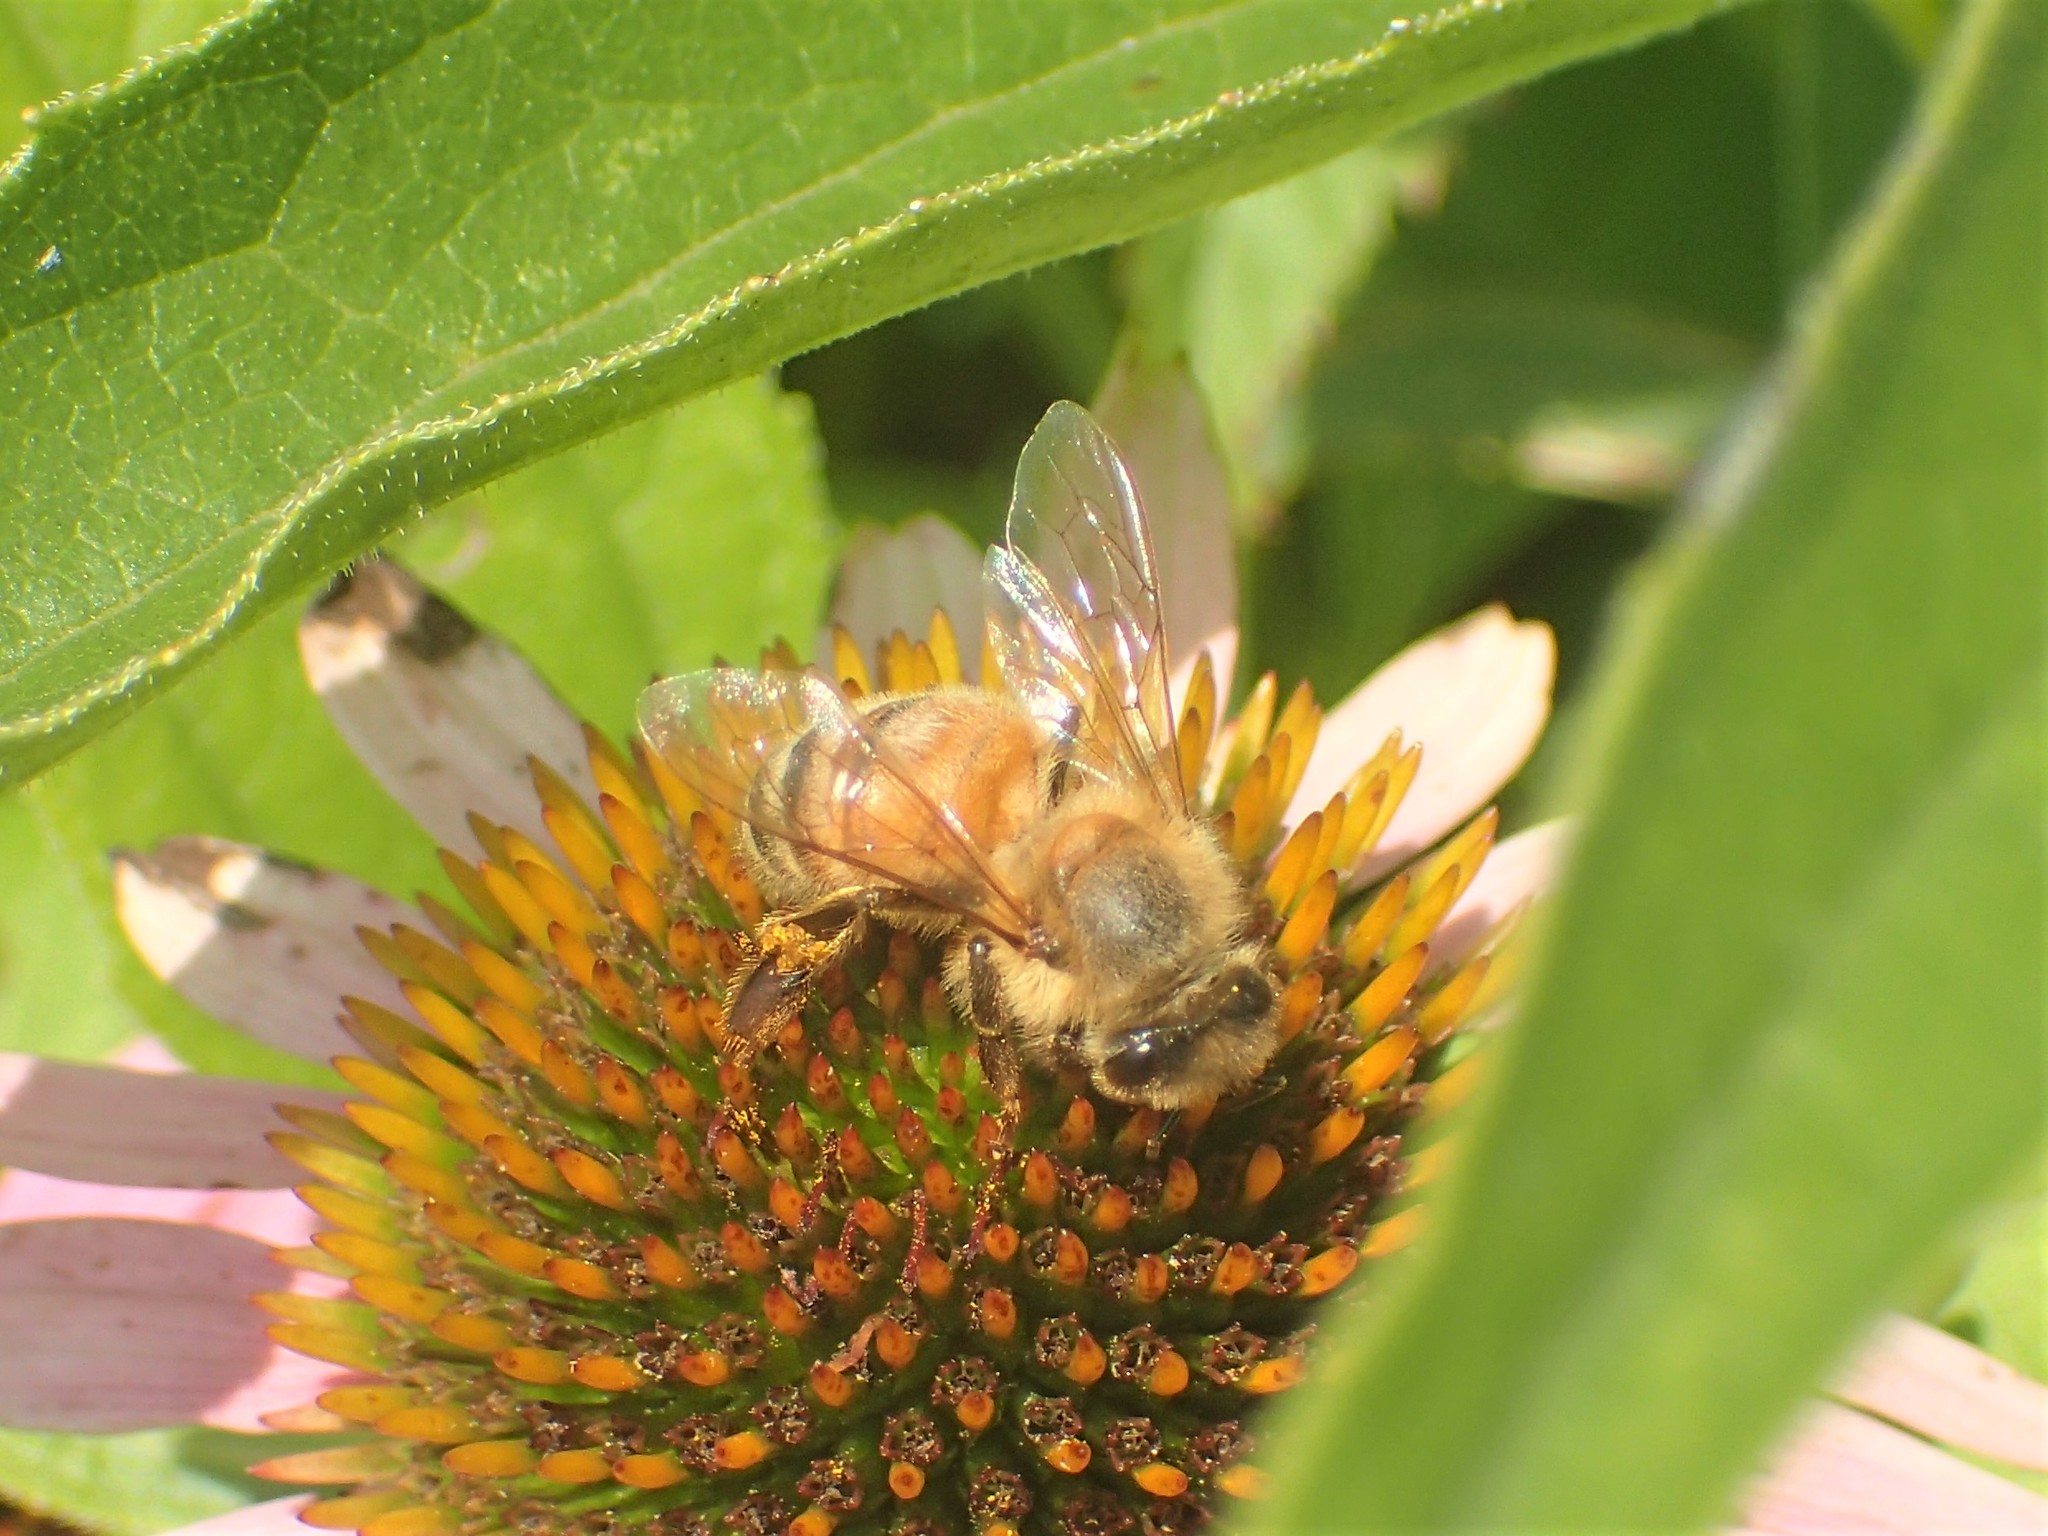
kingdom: Animalia
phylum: Arthropoda
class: Insecta
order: Hymenoptera
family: Apidae
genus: Apis
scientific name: Apis mellifera
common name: Honey bee
